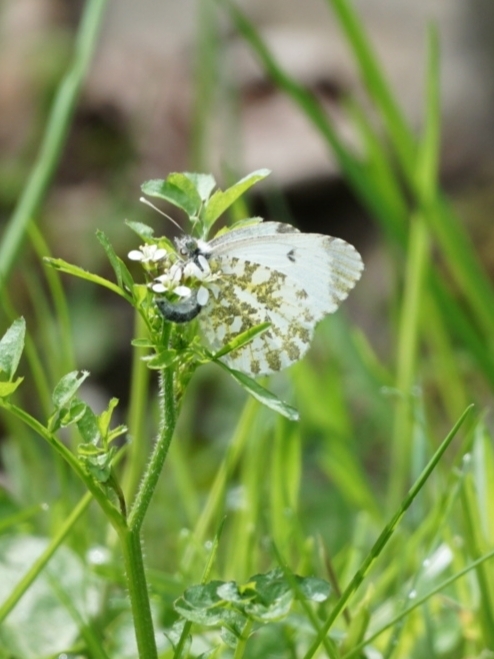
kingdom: Animalia
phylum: Arthropoda
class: Insecta
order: Lepidoptera
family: Pieridae
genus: Anthocharis
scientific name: Anthocharis cardamines
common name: Orange-tip
